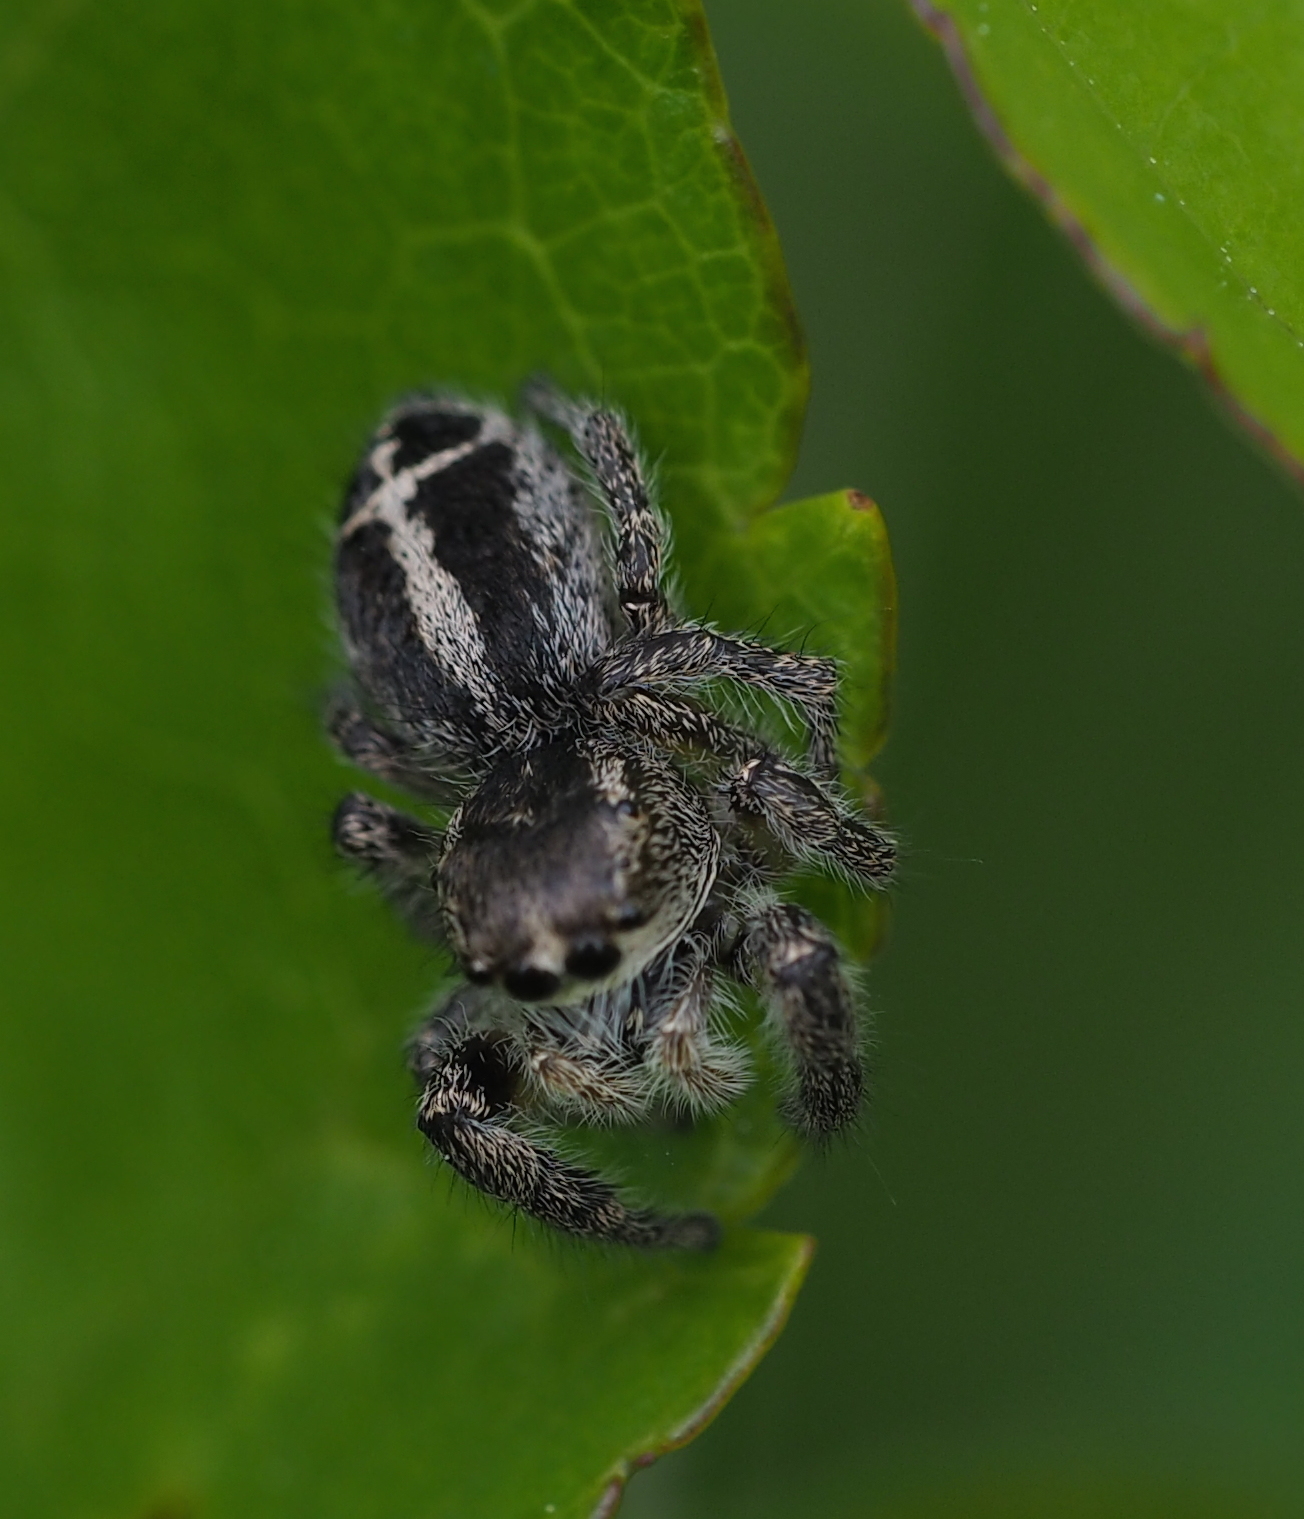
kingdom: Animalia
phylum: Arthropoda
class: Arachnida
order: Araneae
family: Salticidae
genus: Pellenes
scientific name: Pellenes tripunctatus
